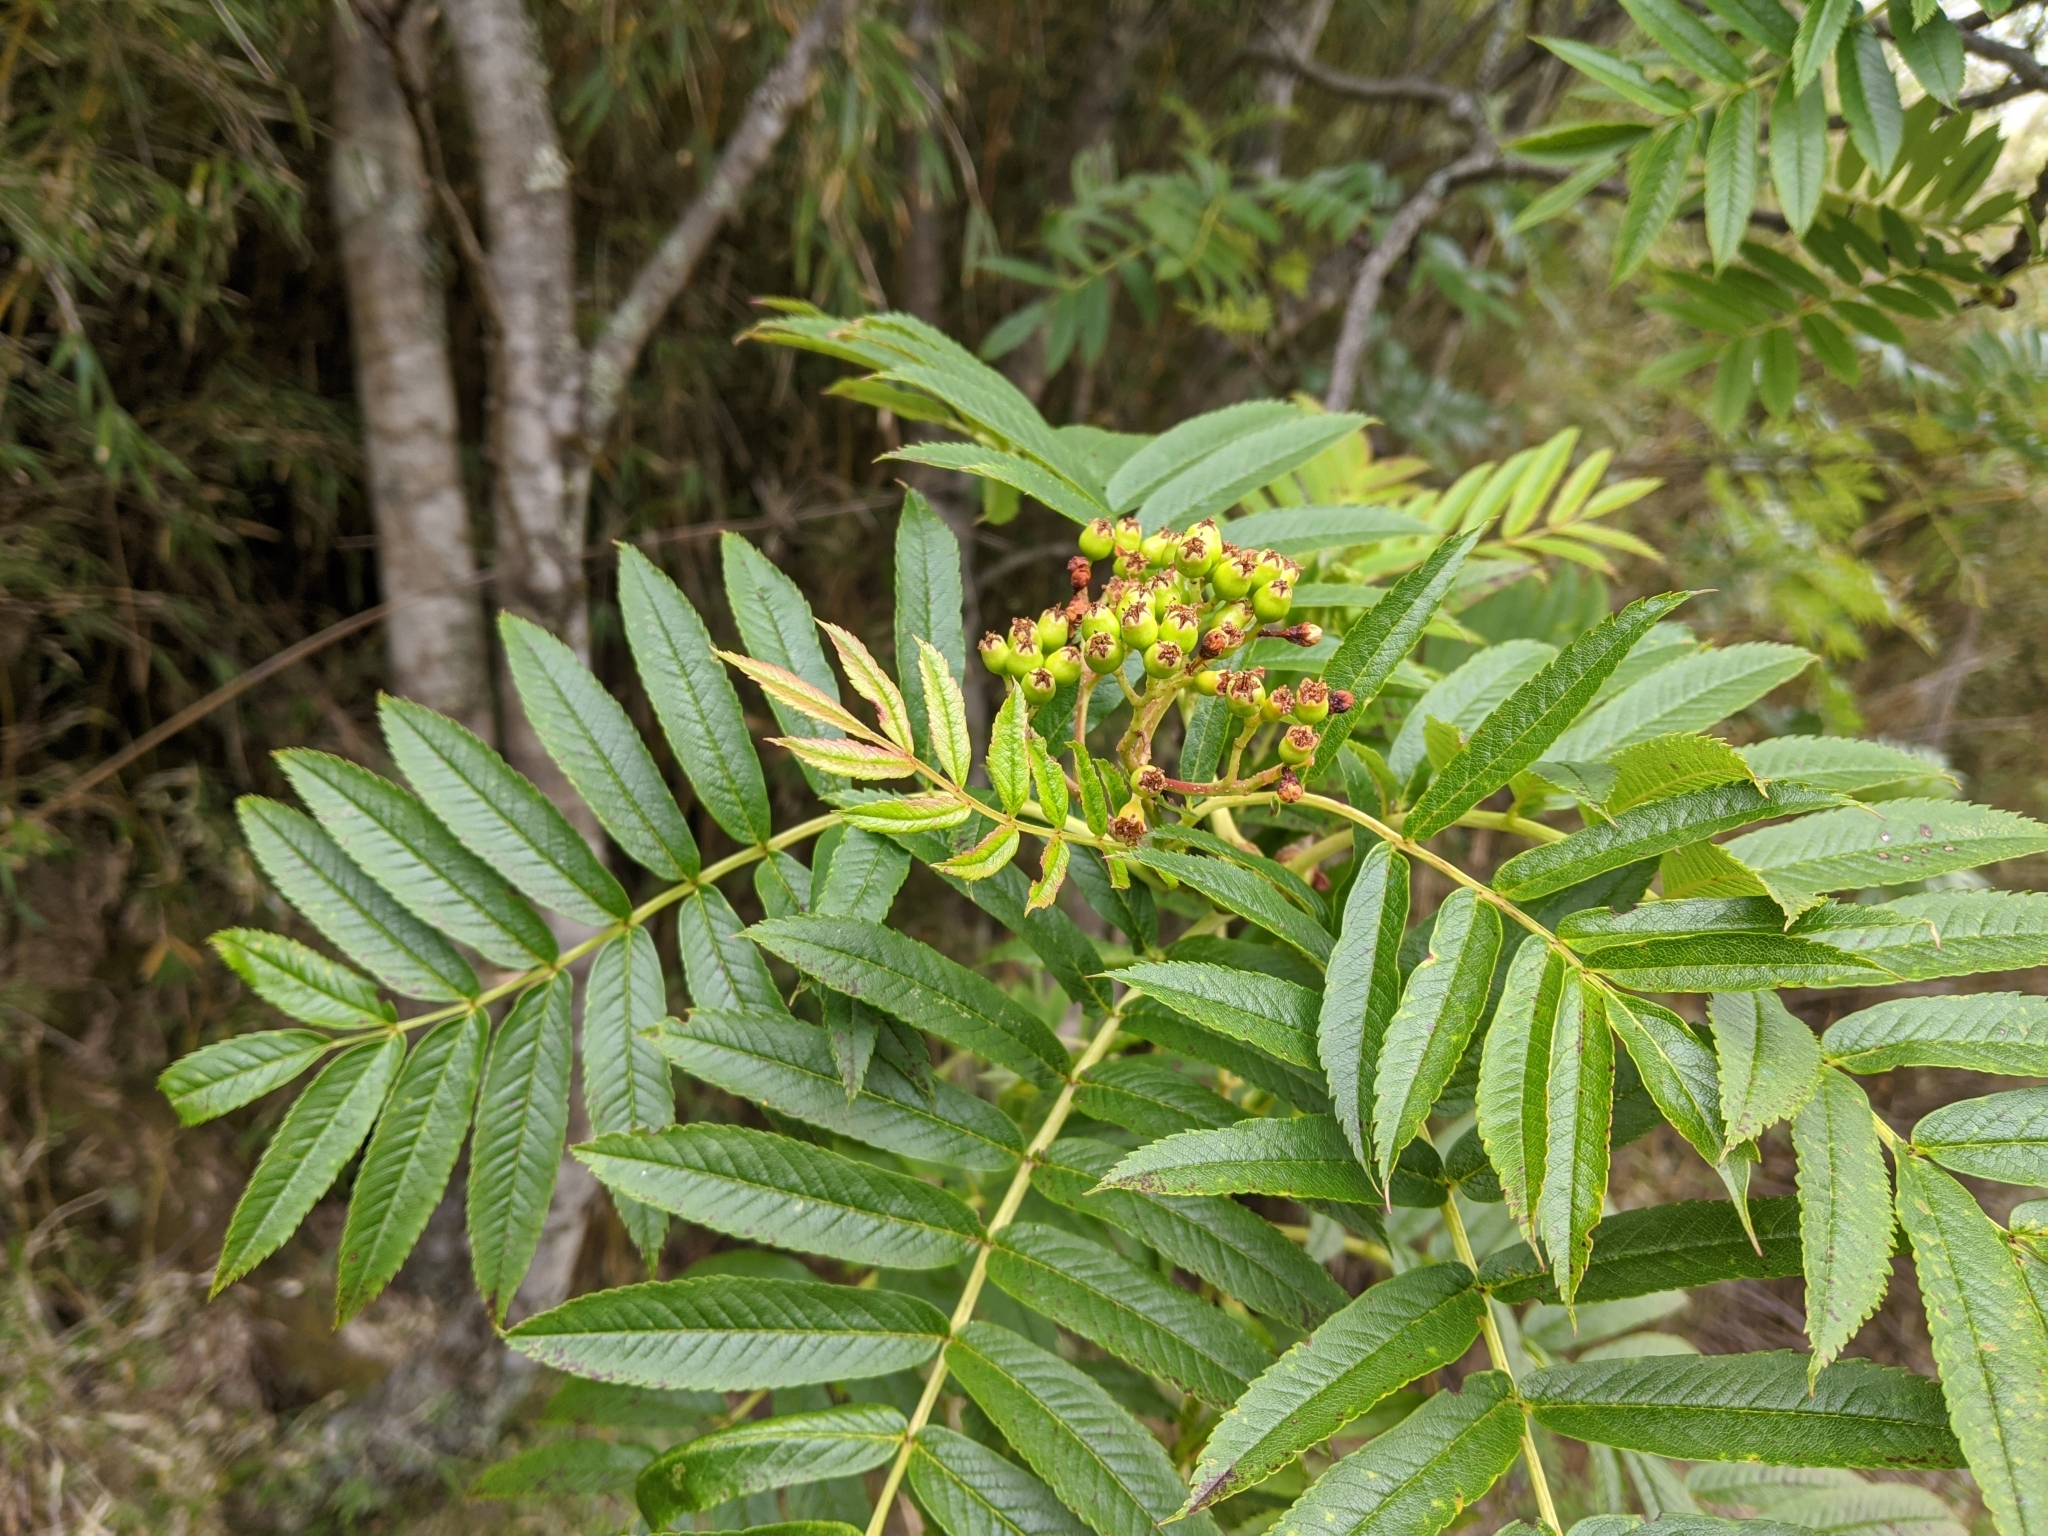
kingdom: Plantae
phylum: Tracheophyta
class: Magnoliopsida
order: Rosales
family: Rosaceae
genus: Sorbus
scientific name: Sorbus randaiensis
